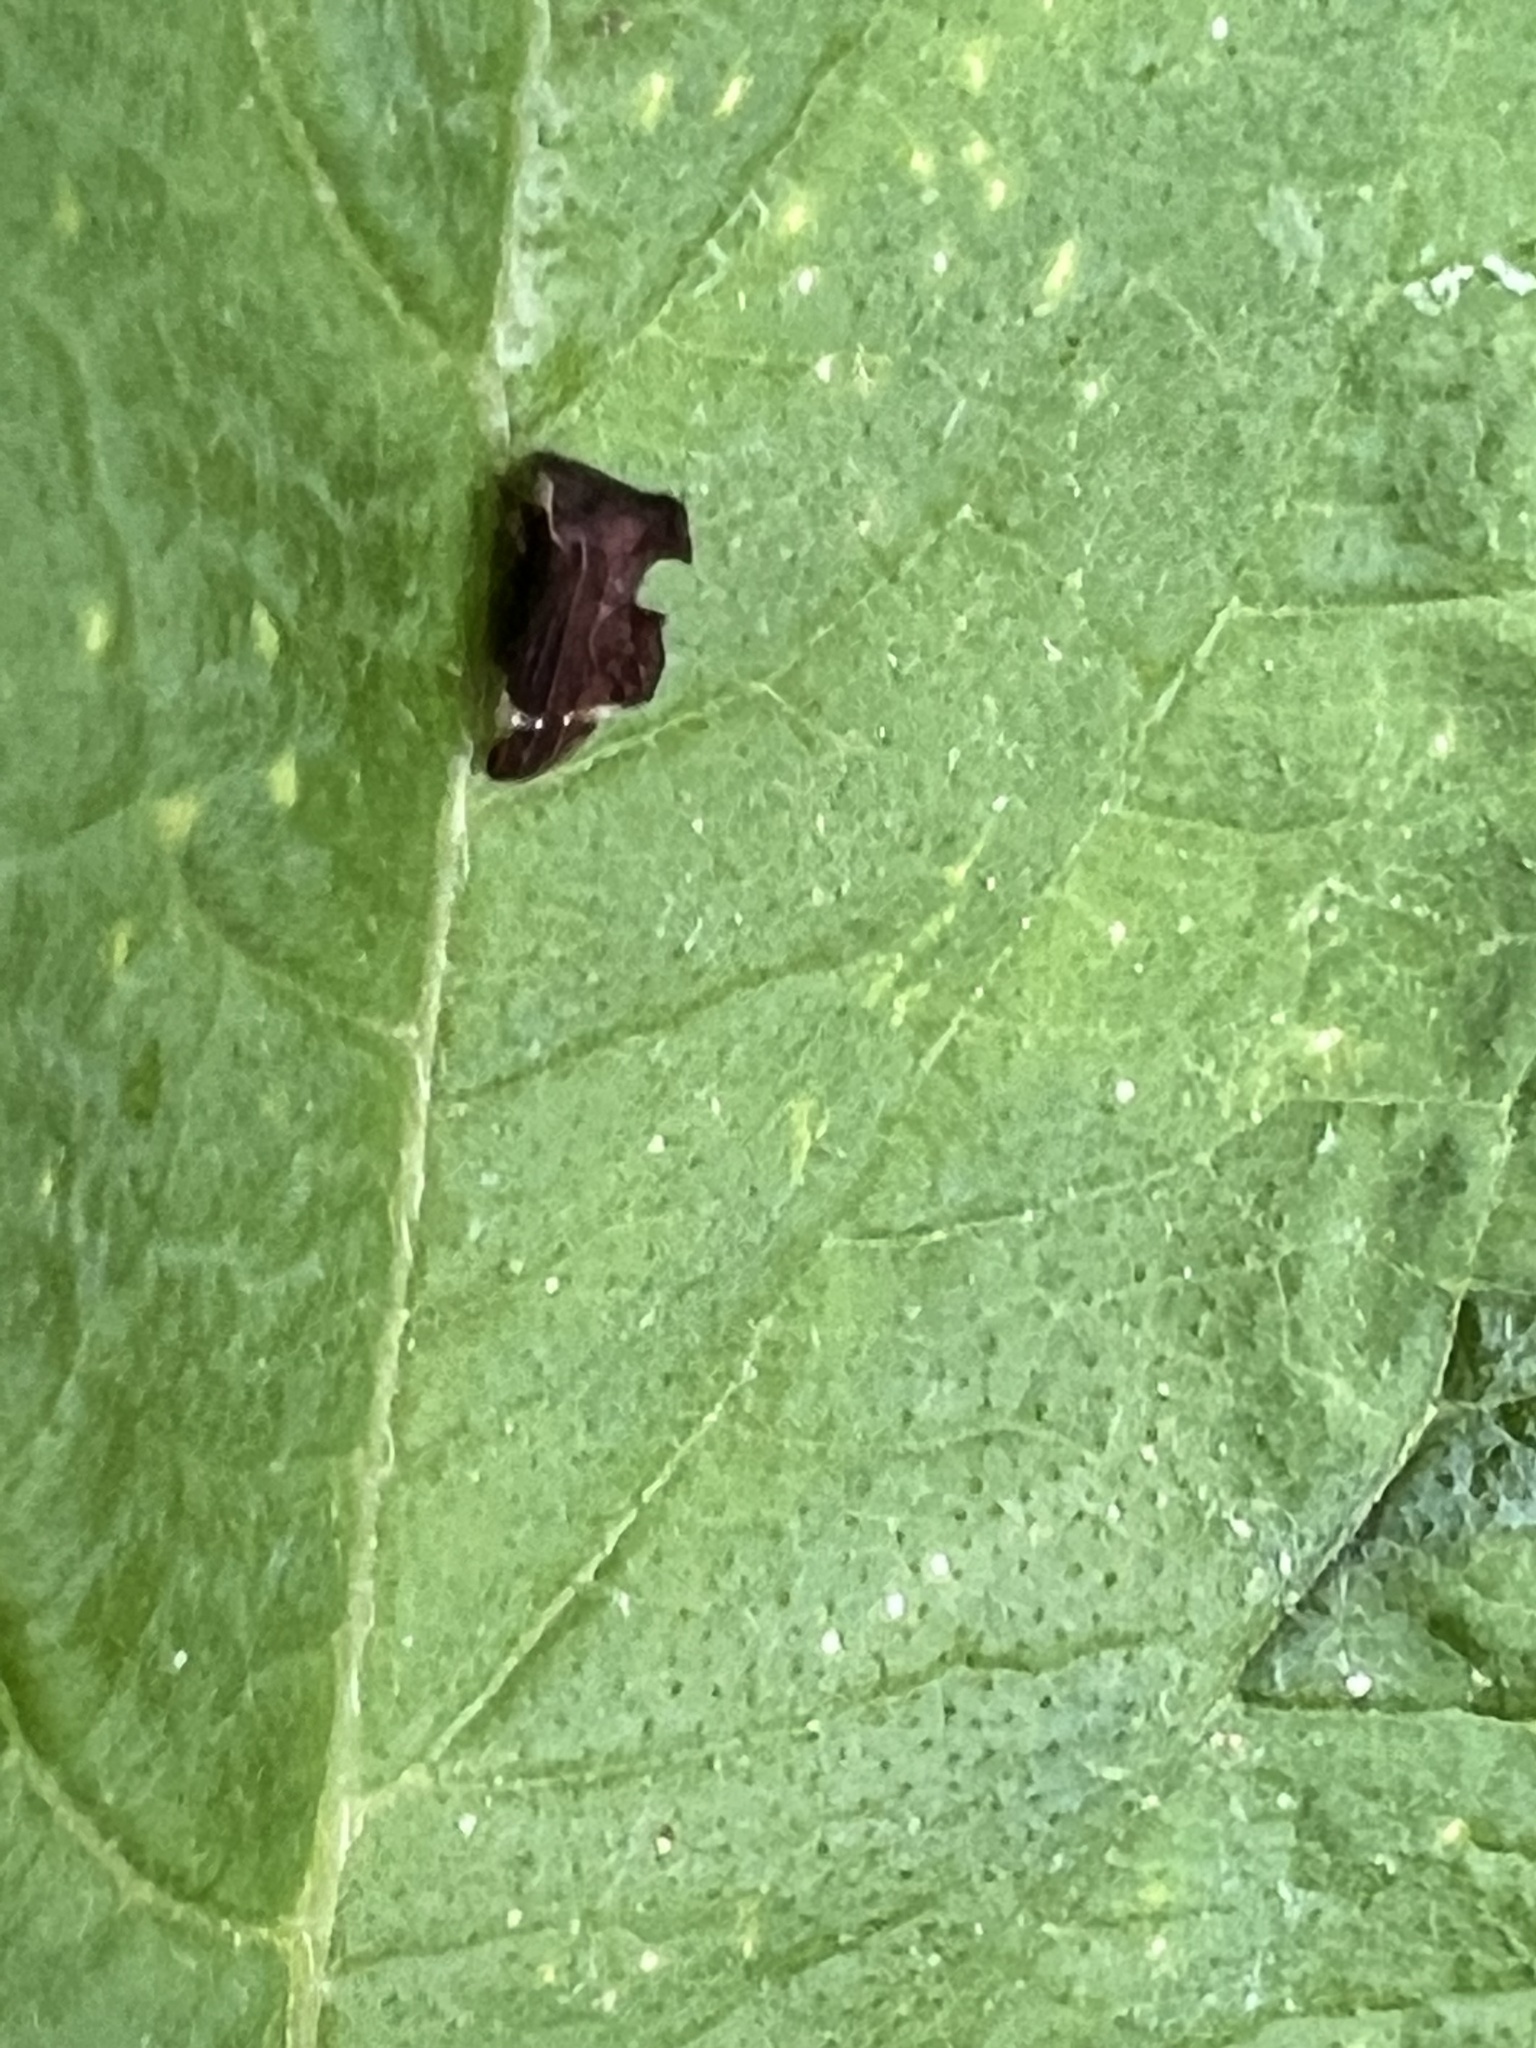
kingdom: Animalia
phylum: Arthropoda
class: Insecta
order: Hemiptera
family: Membracidae
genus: Entylia
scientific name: Entylia carinata
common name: Keeled treehopper
